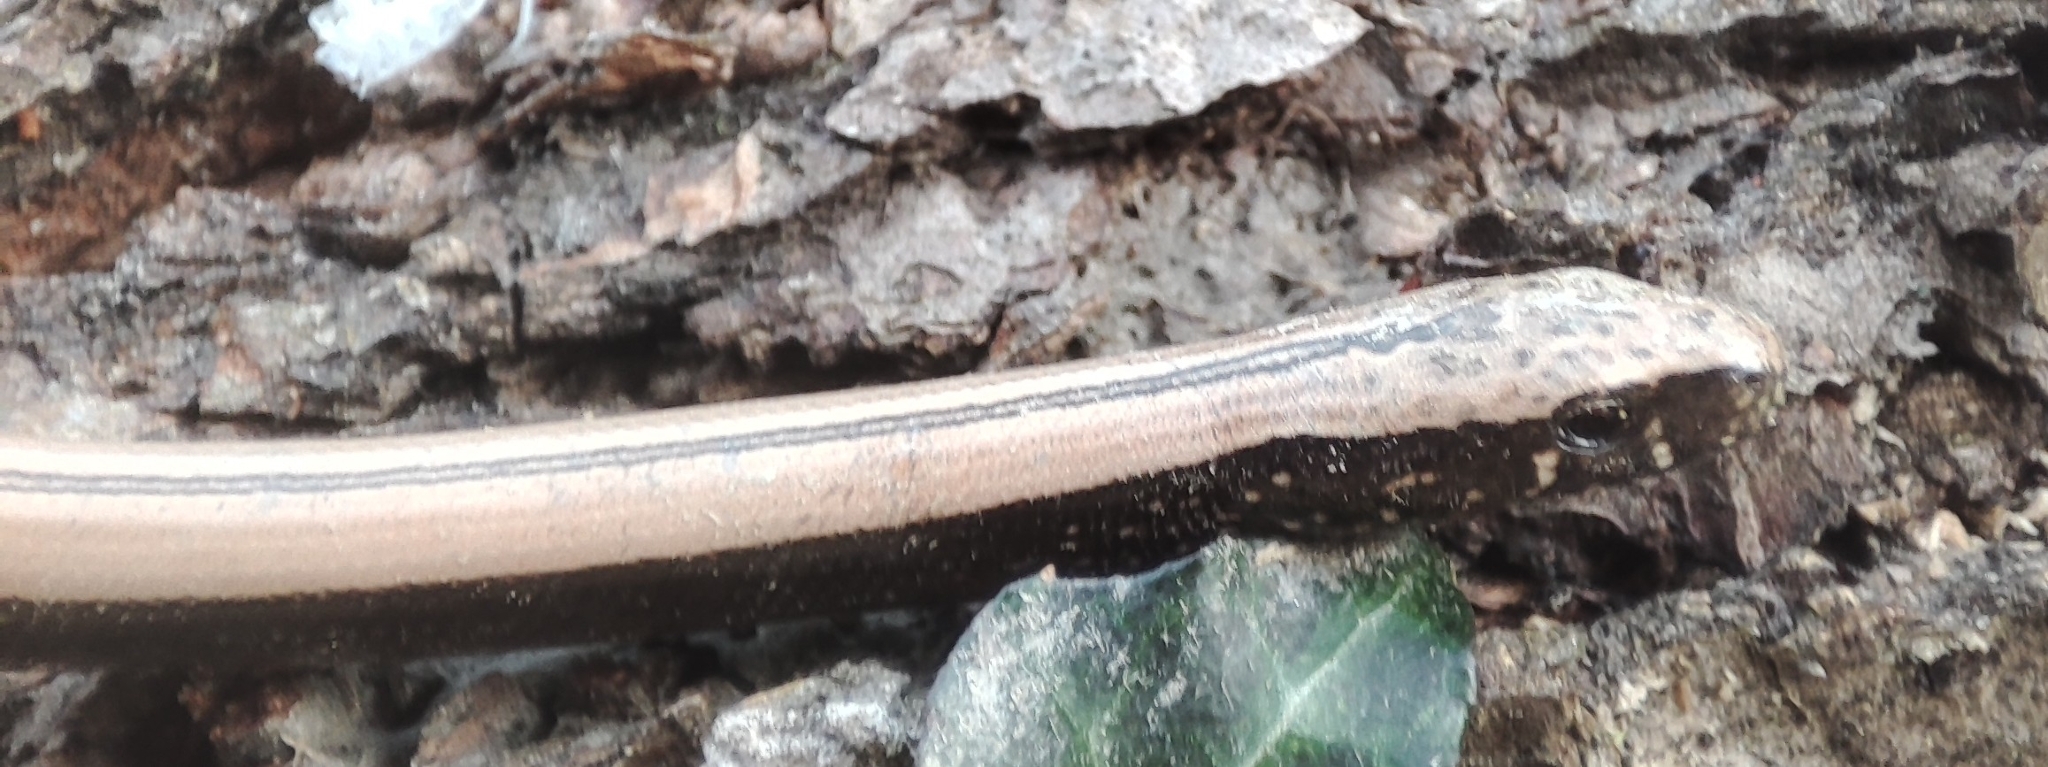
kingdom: Animalia
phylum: Chordata
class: Squamata
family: Anguidae
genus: Anguis
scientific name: Anguis colchica
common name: Slow worm
